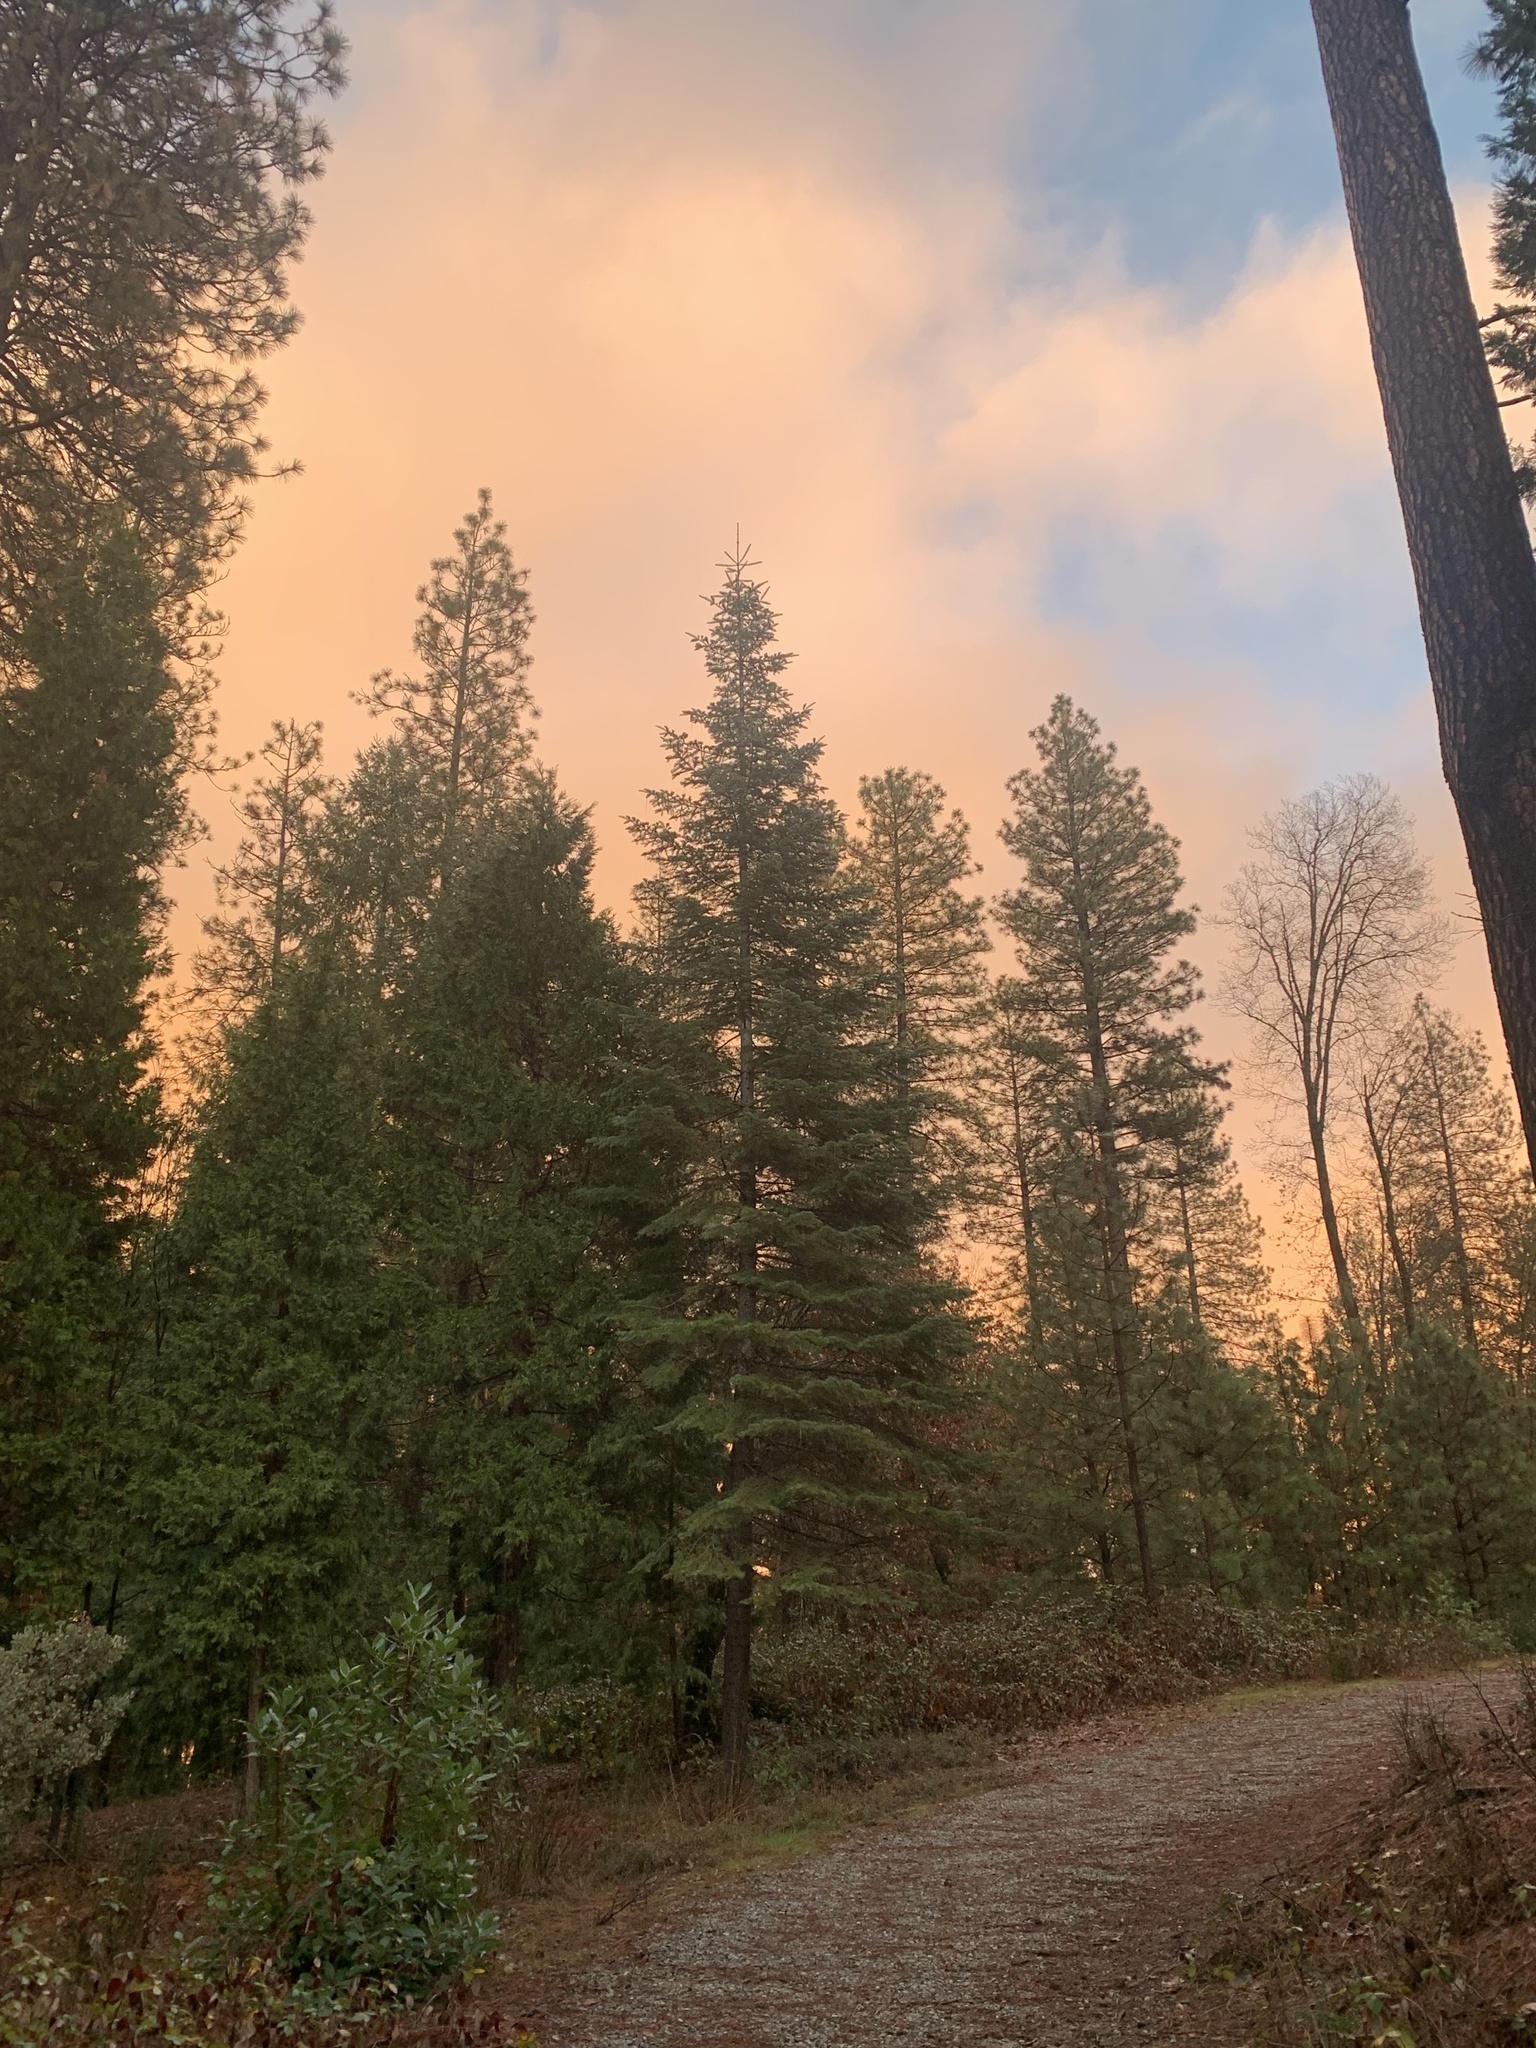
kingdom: Plantae
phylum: Tracheophyta
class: Pinopsida
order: Pinales
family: Pinaceae
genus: Abies
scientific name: Abies concolor
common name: Colorado fir
